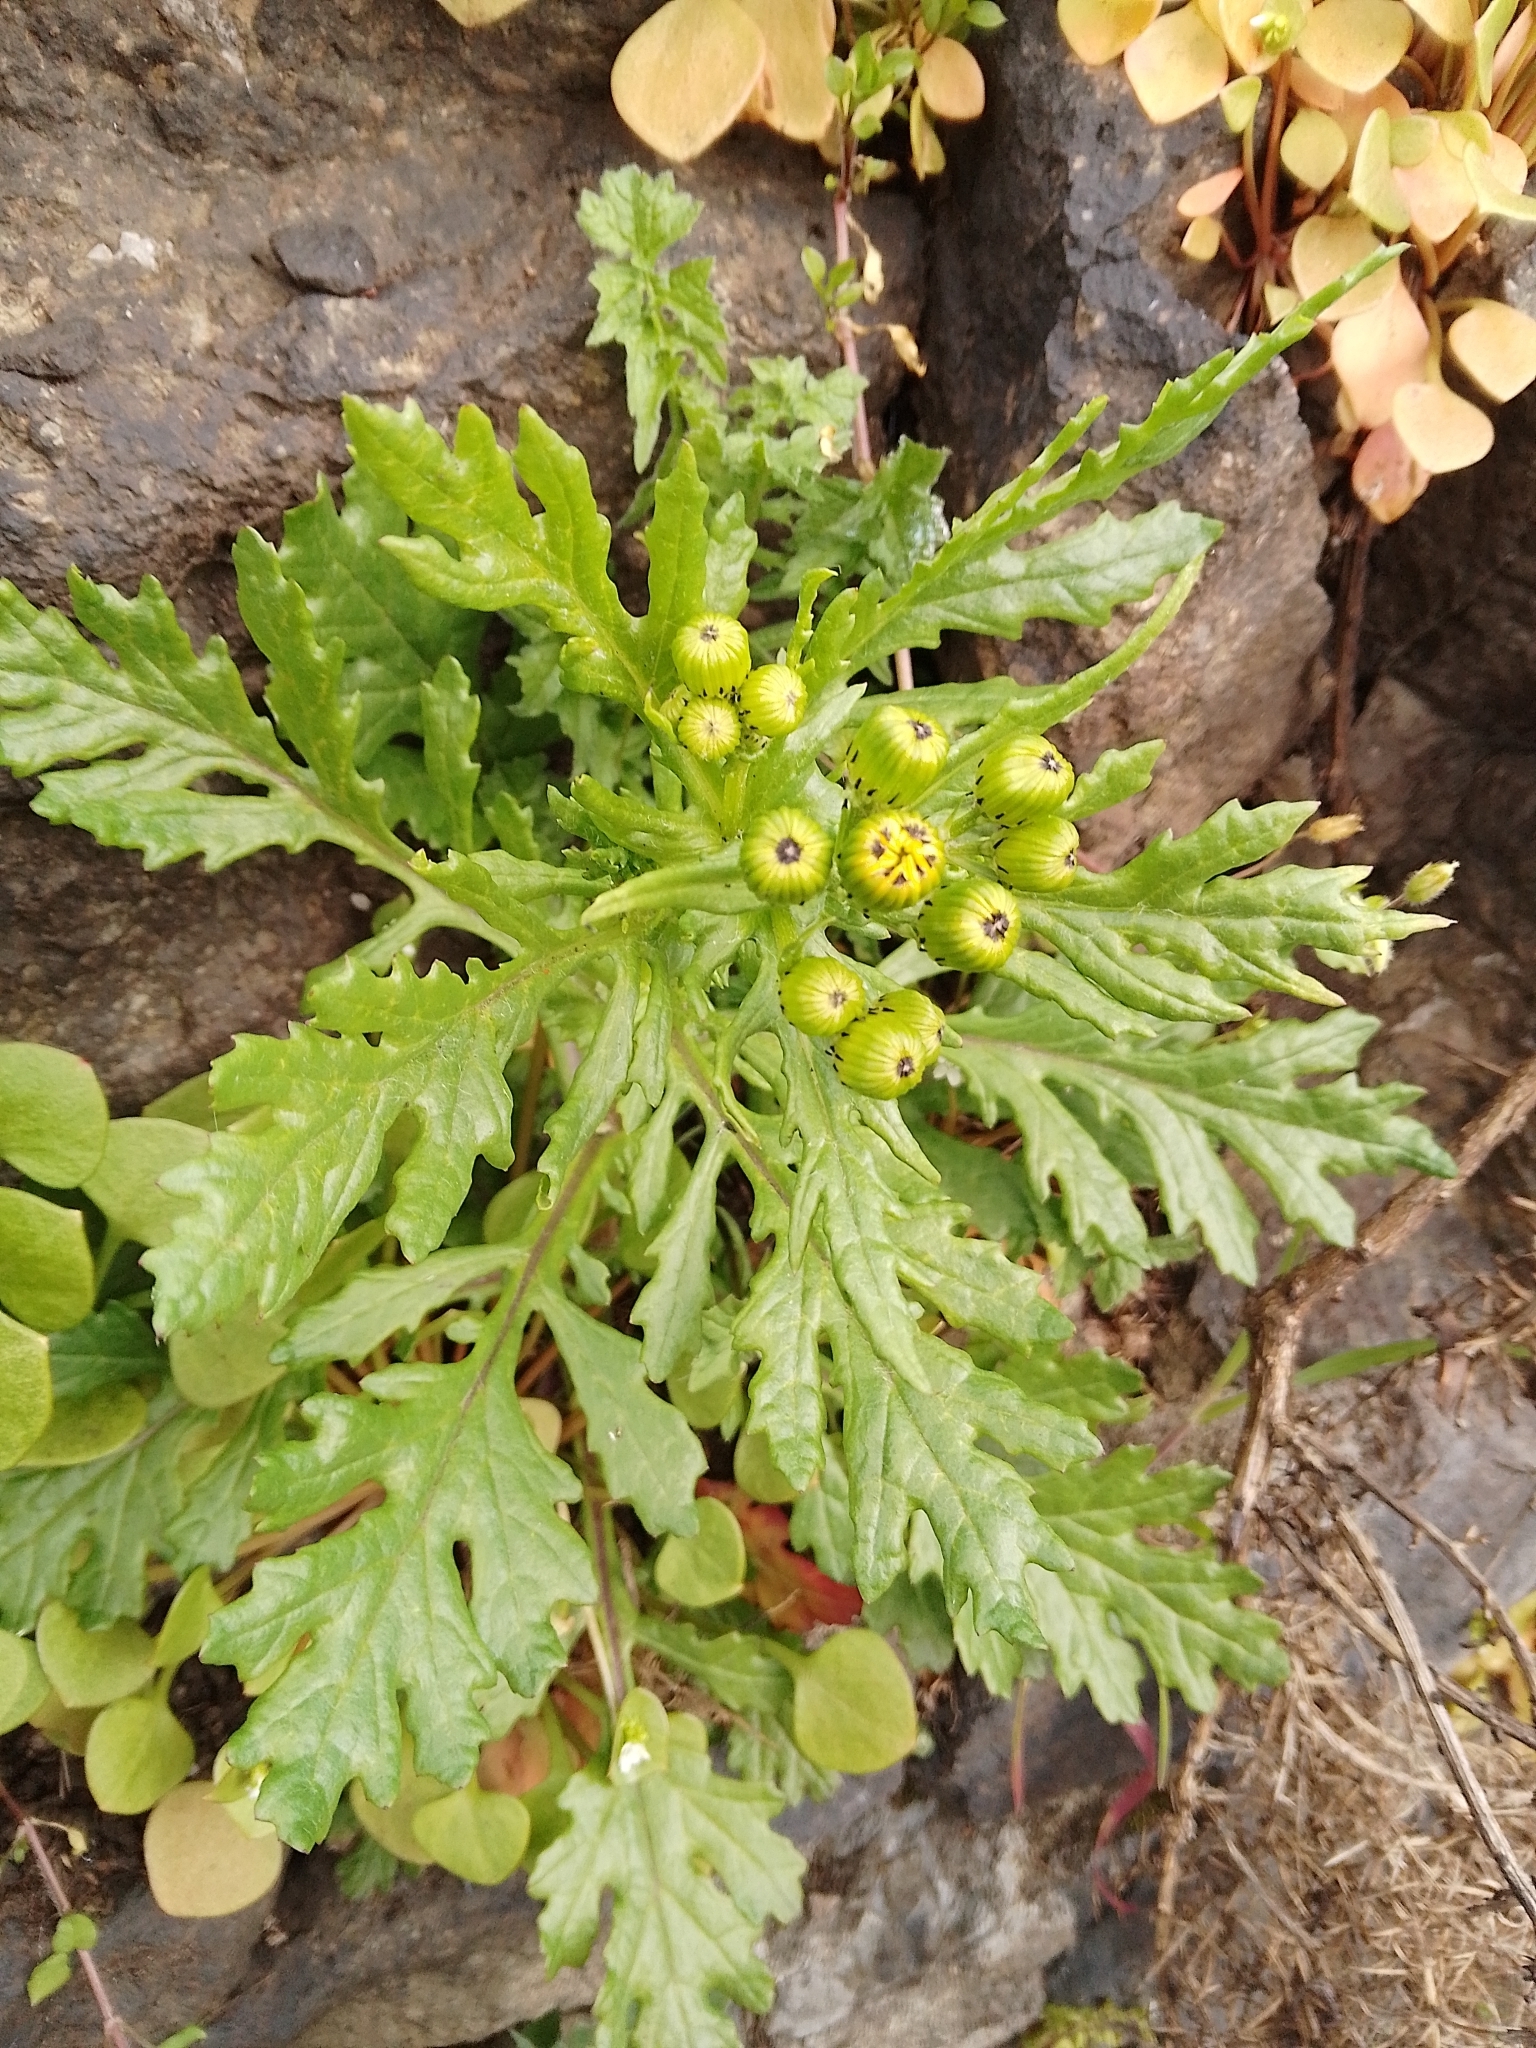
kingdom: Plantae
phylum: Tracheophyta
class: Magnoliopsida
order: Asterales
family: Asteraceae
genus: Senecio
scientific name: Senecio squalidus
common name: Oxford ragwort
